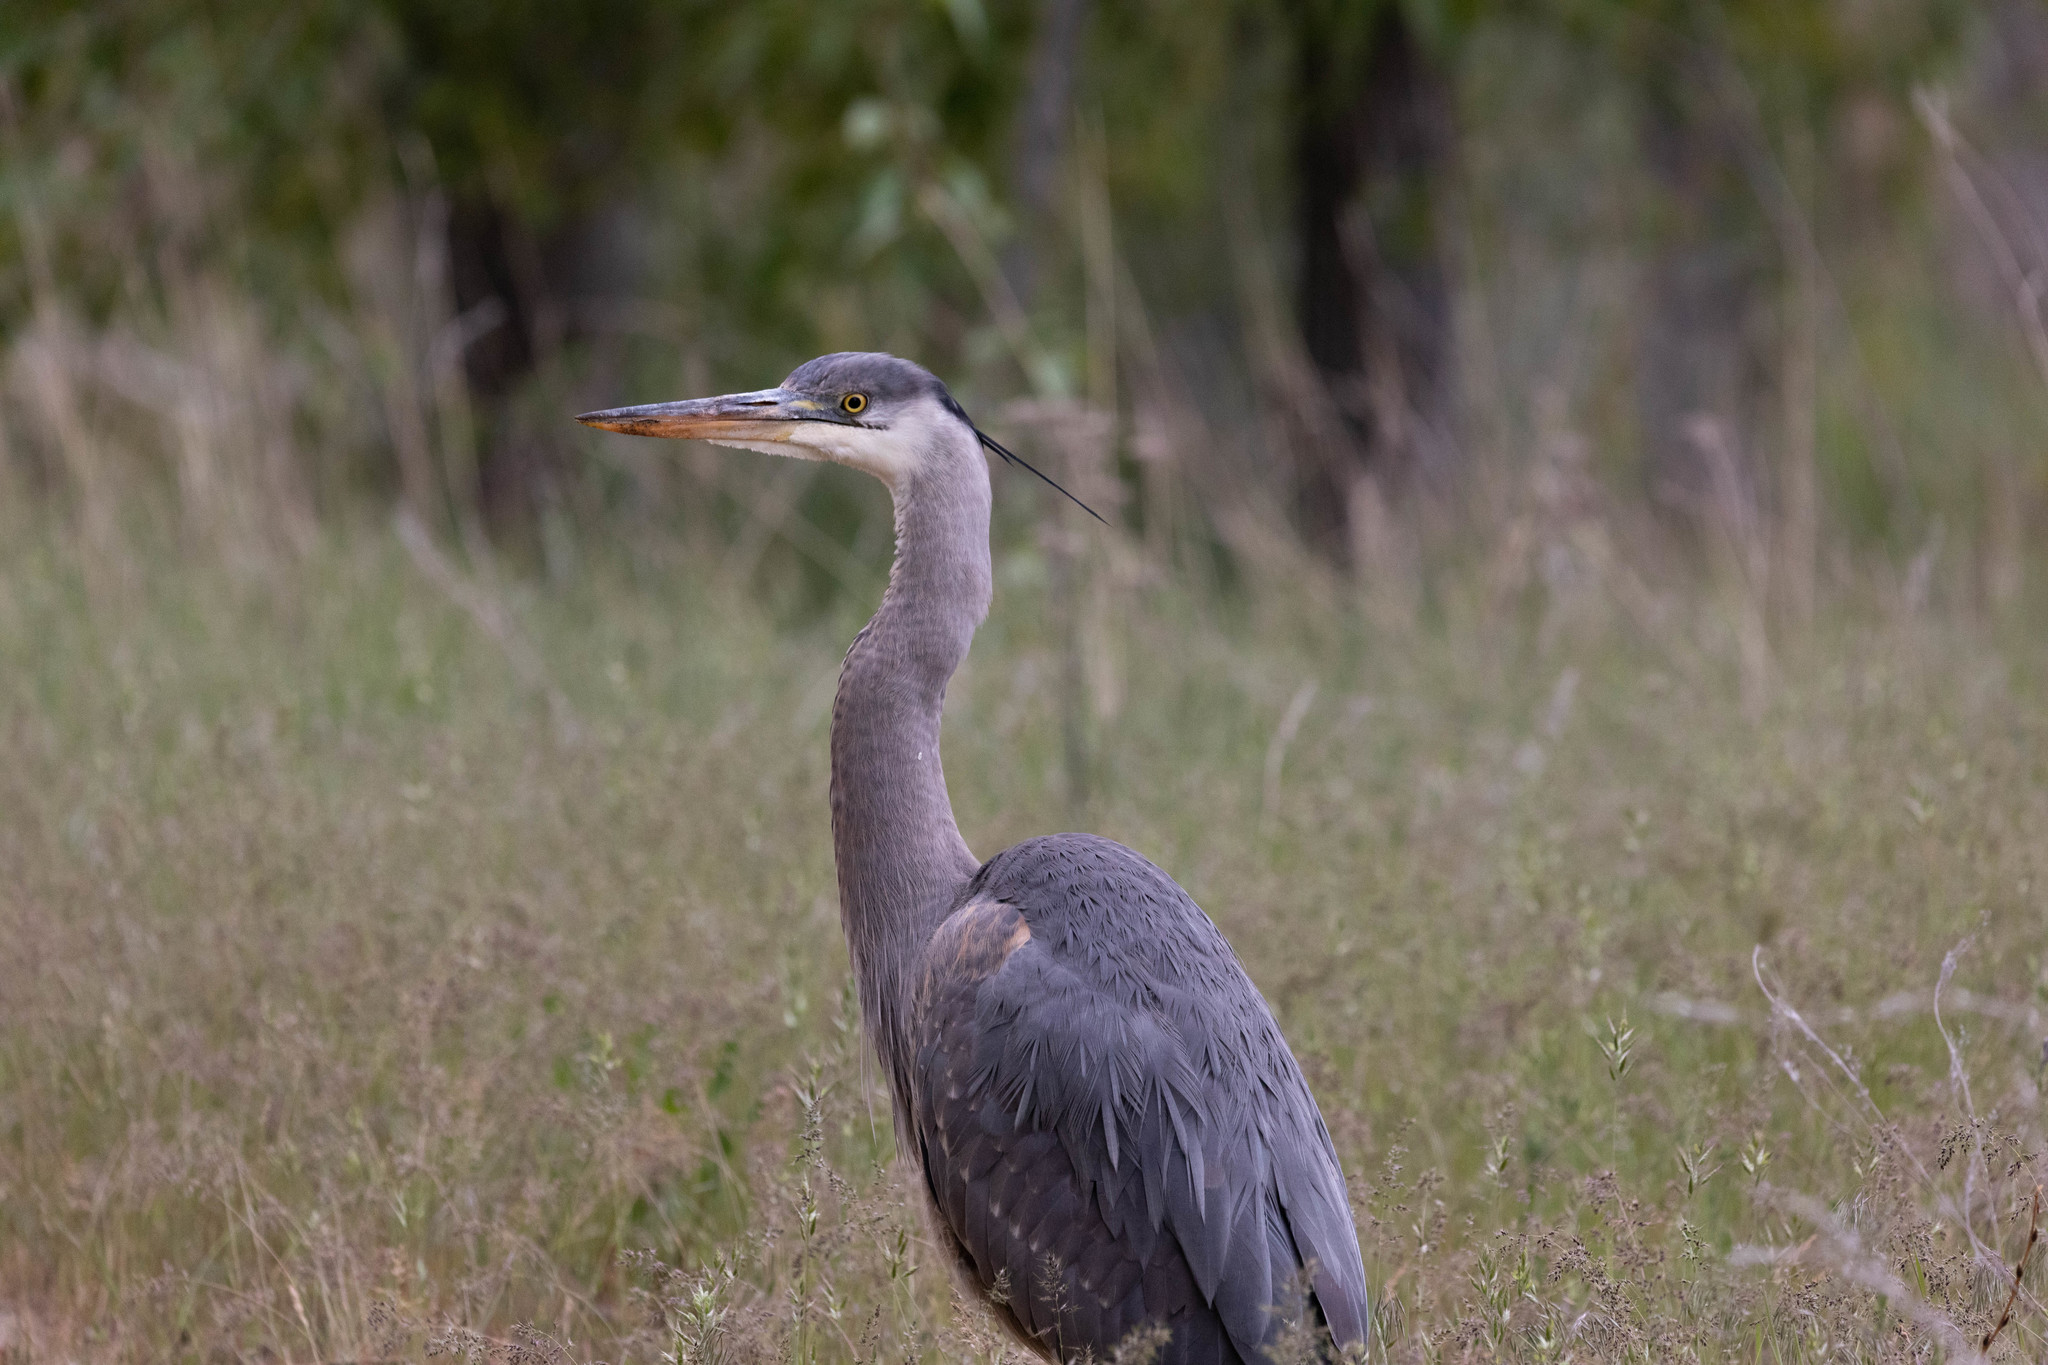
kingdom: Animalia
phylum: Chordata
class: Aves
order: Pelecaniformes
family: Ardeidae
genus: Ardea
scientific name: Ardea herodias
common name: Great blue heron
